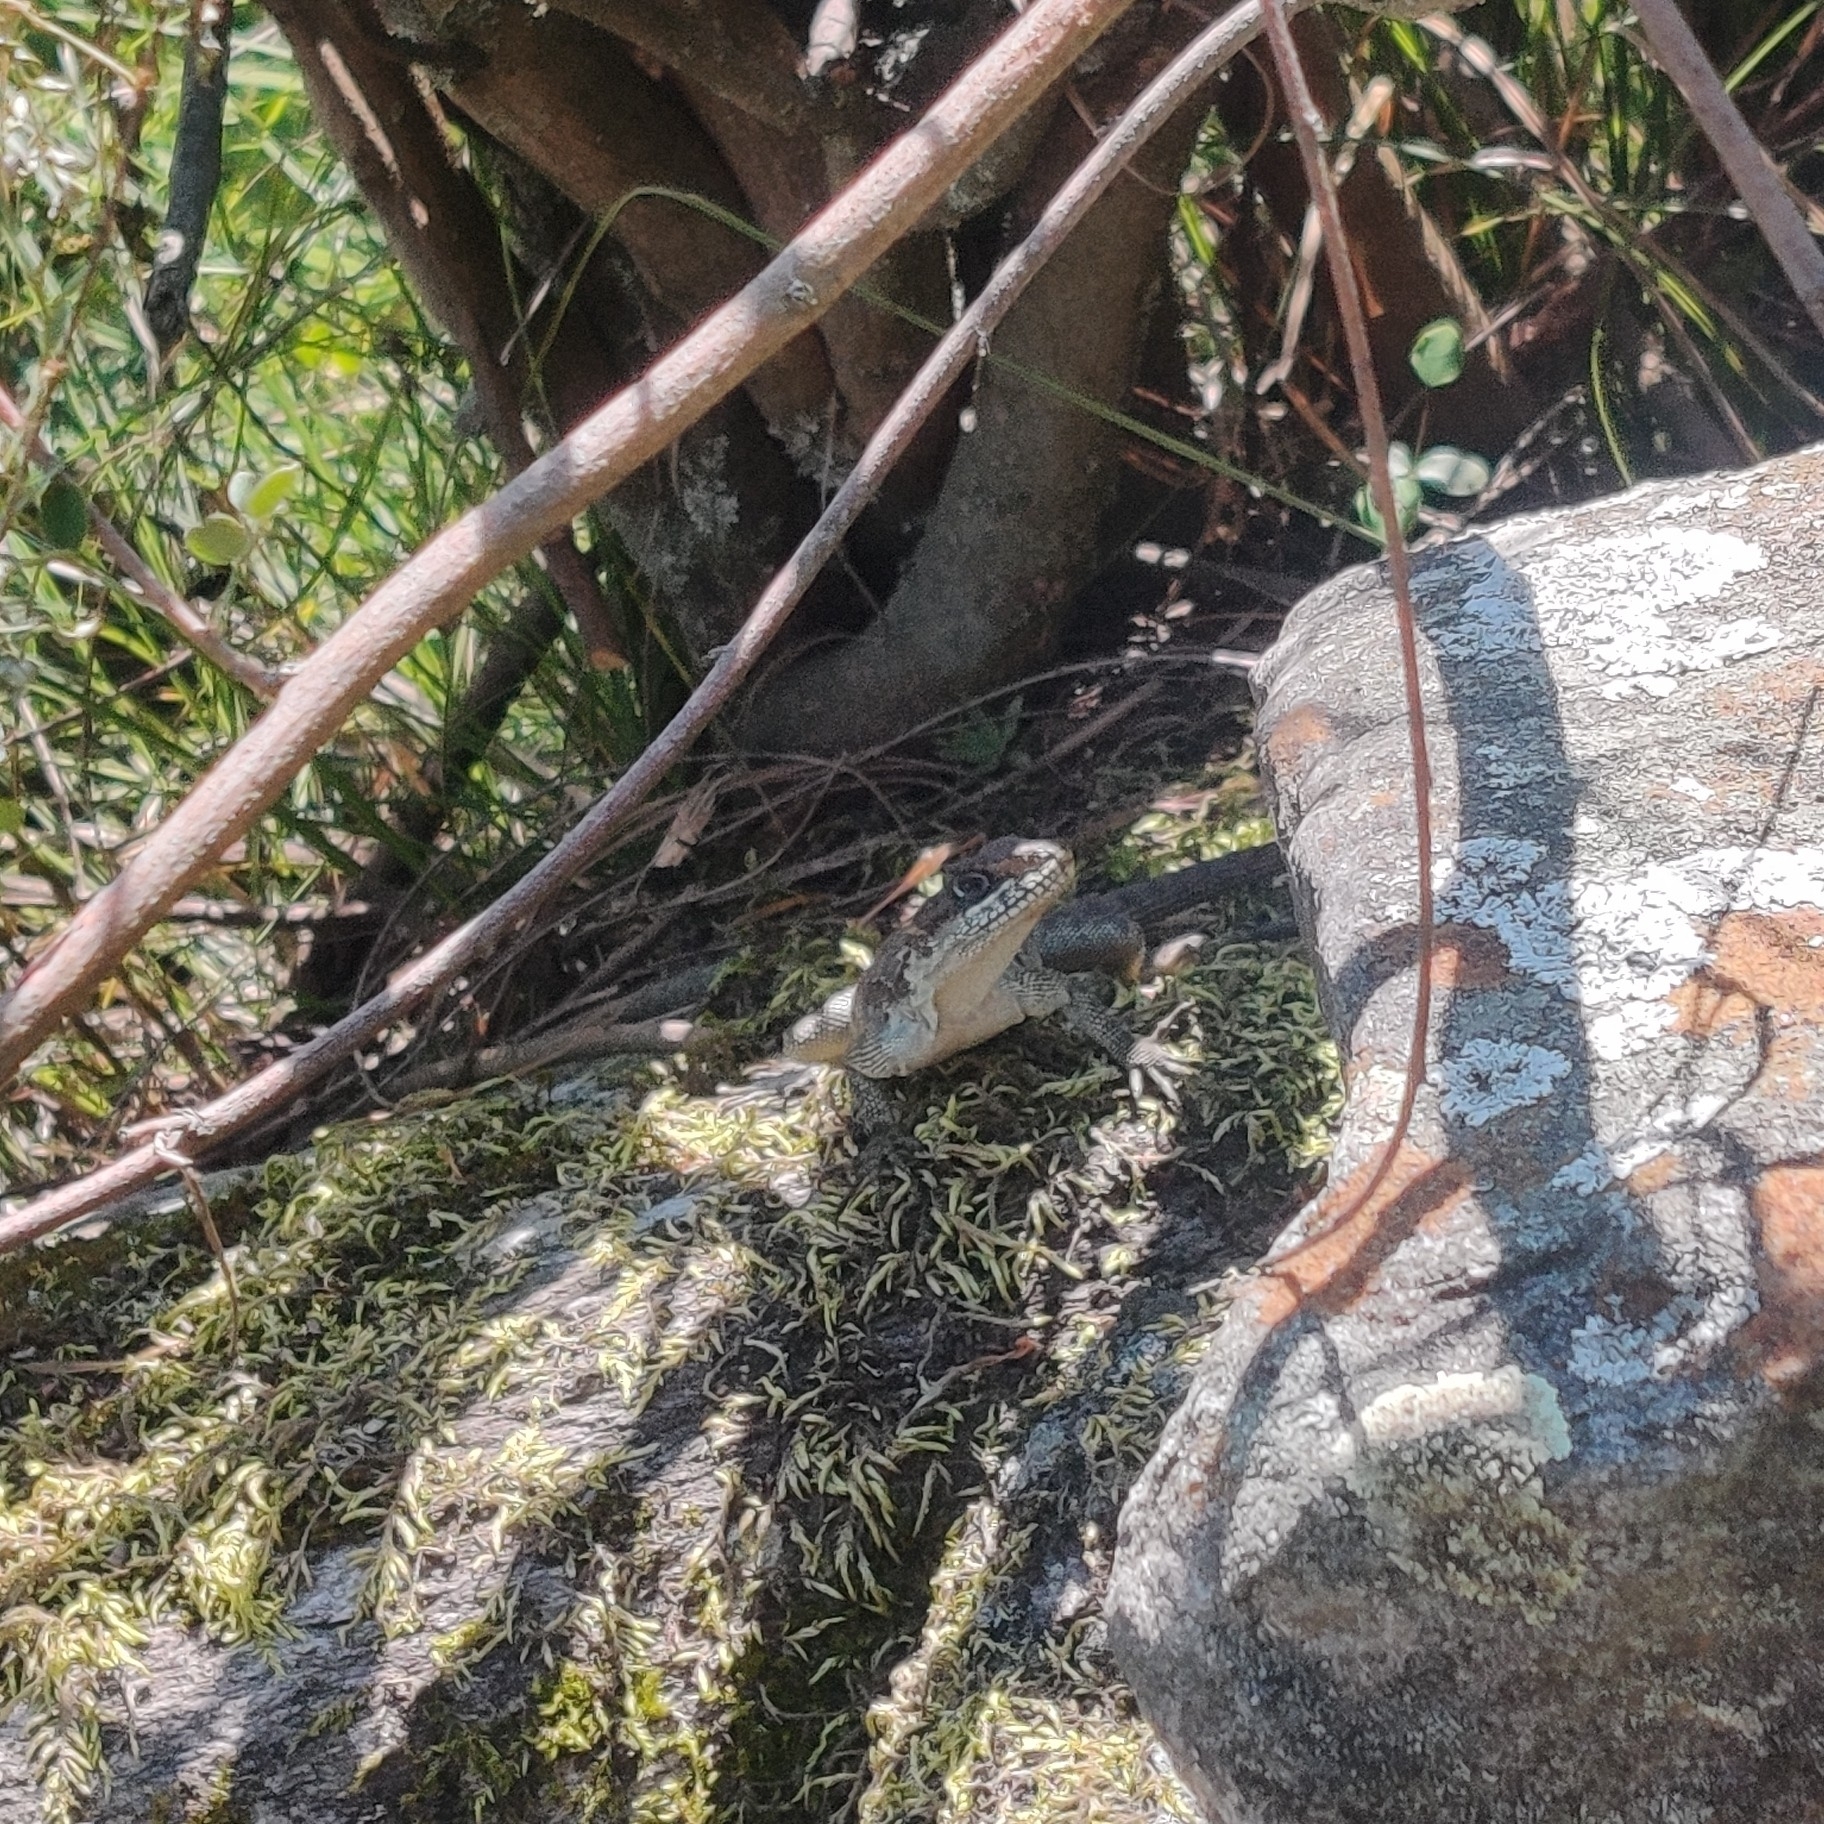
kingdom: Animalia
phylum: Chordata
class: Squamata
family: Agamidae
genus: Laudakia
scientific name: Laudakia tuberculata
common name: Kashmir rock agama
